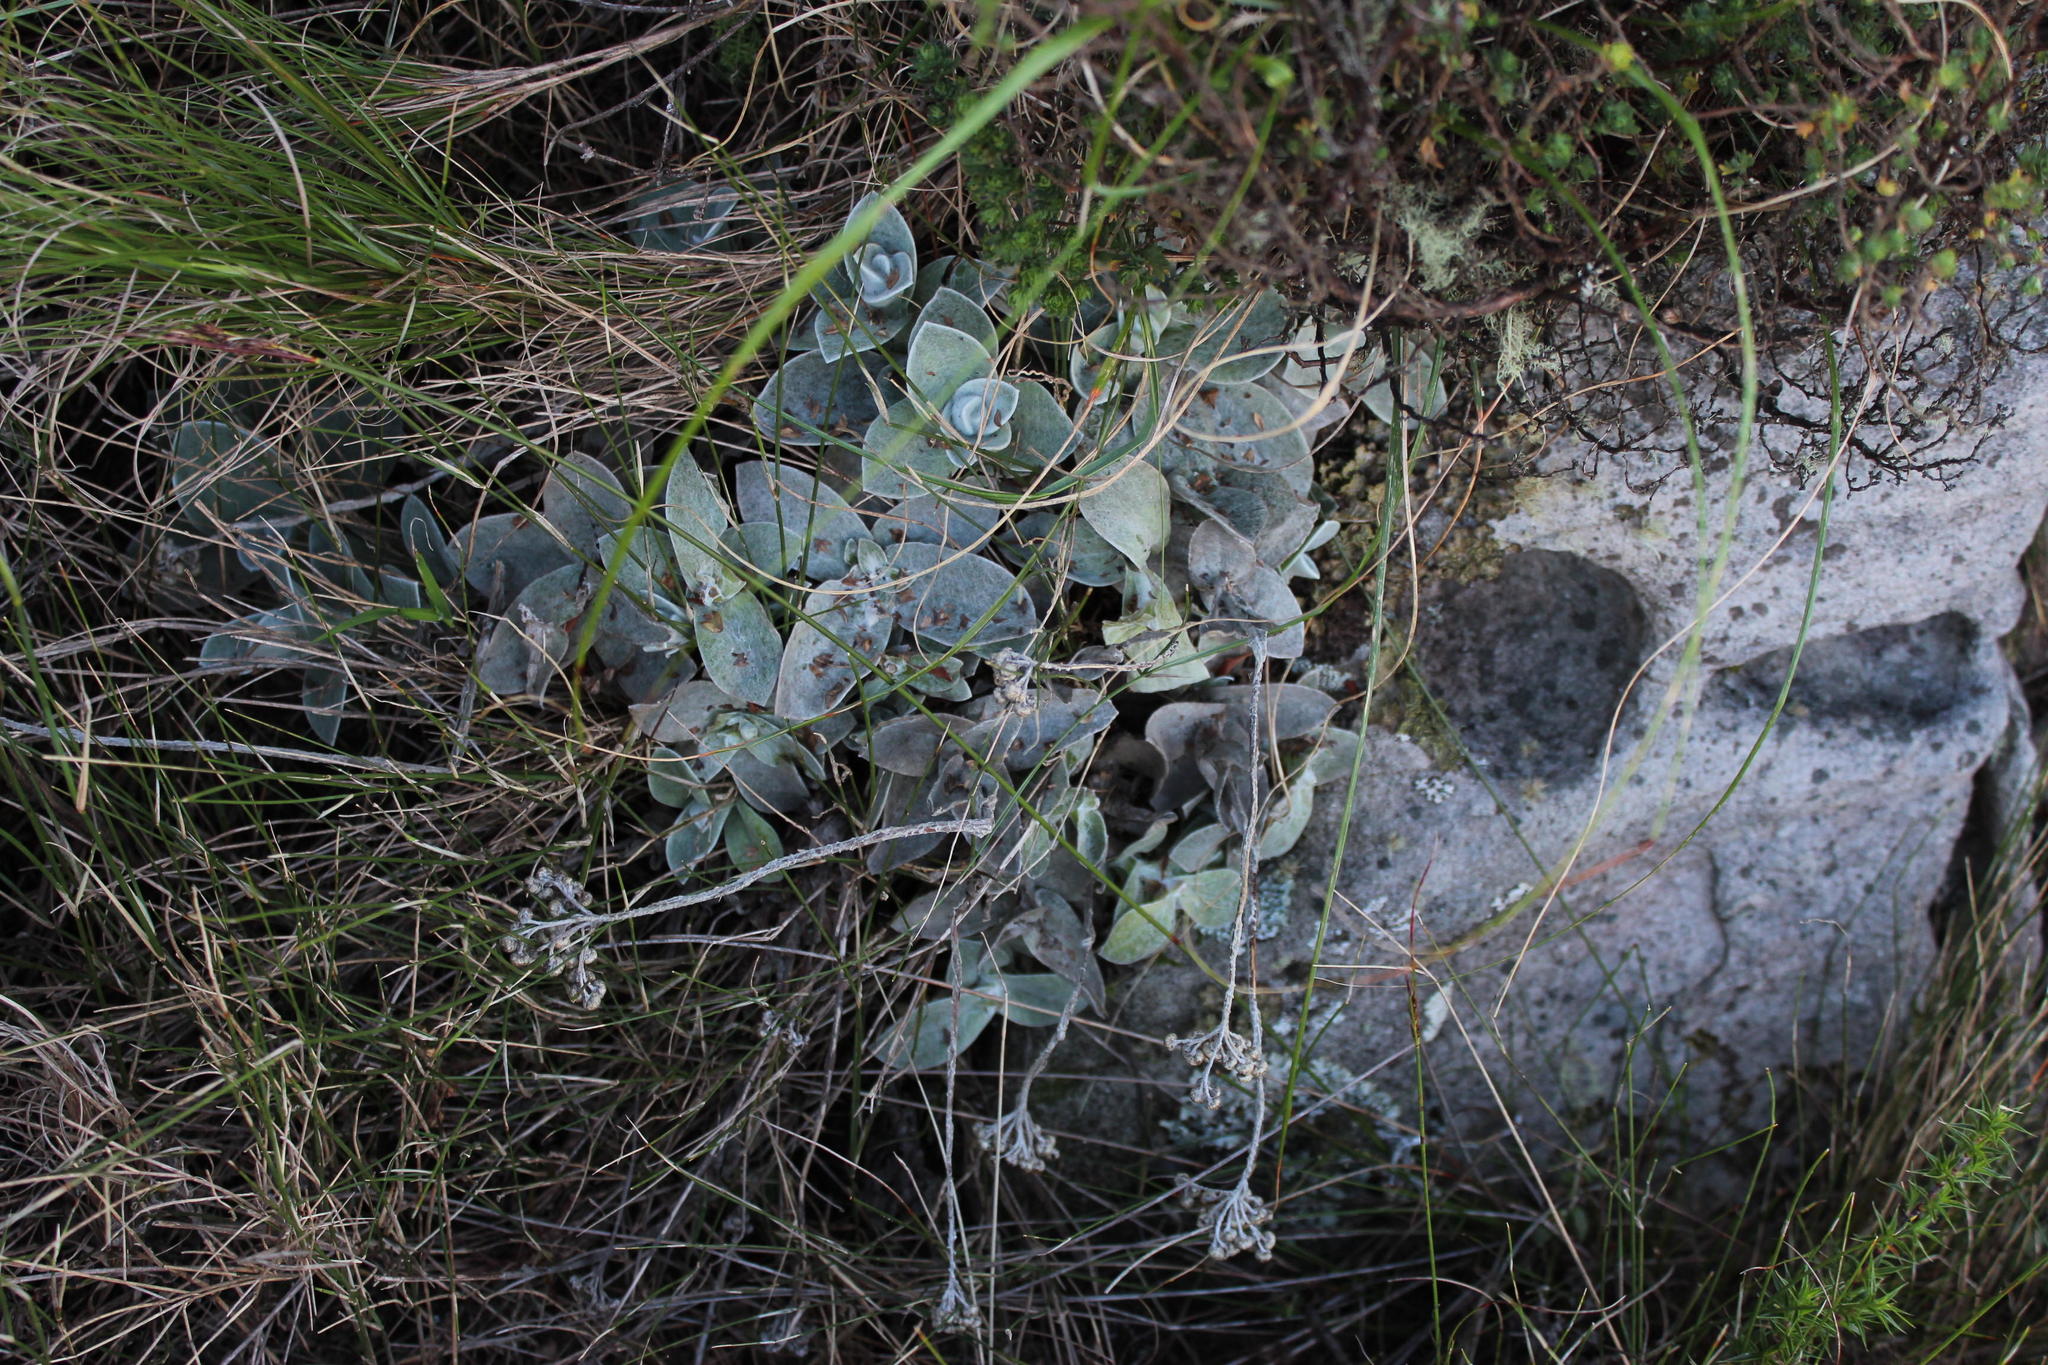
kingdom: Plantae
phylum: Tracheophyta
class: Magnoliopsida
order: Asterales
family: Asteraceae
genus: Helichrysum
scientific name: Helichrysum grandiflorum
